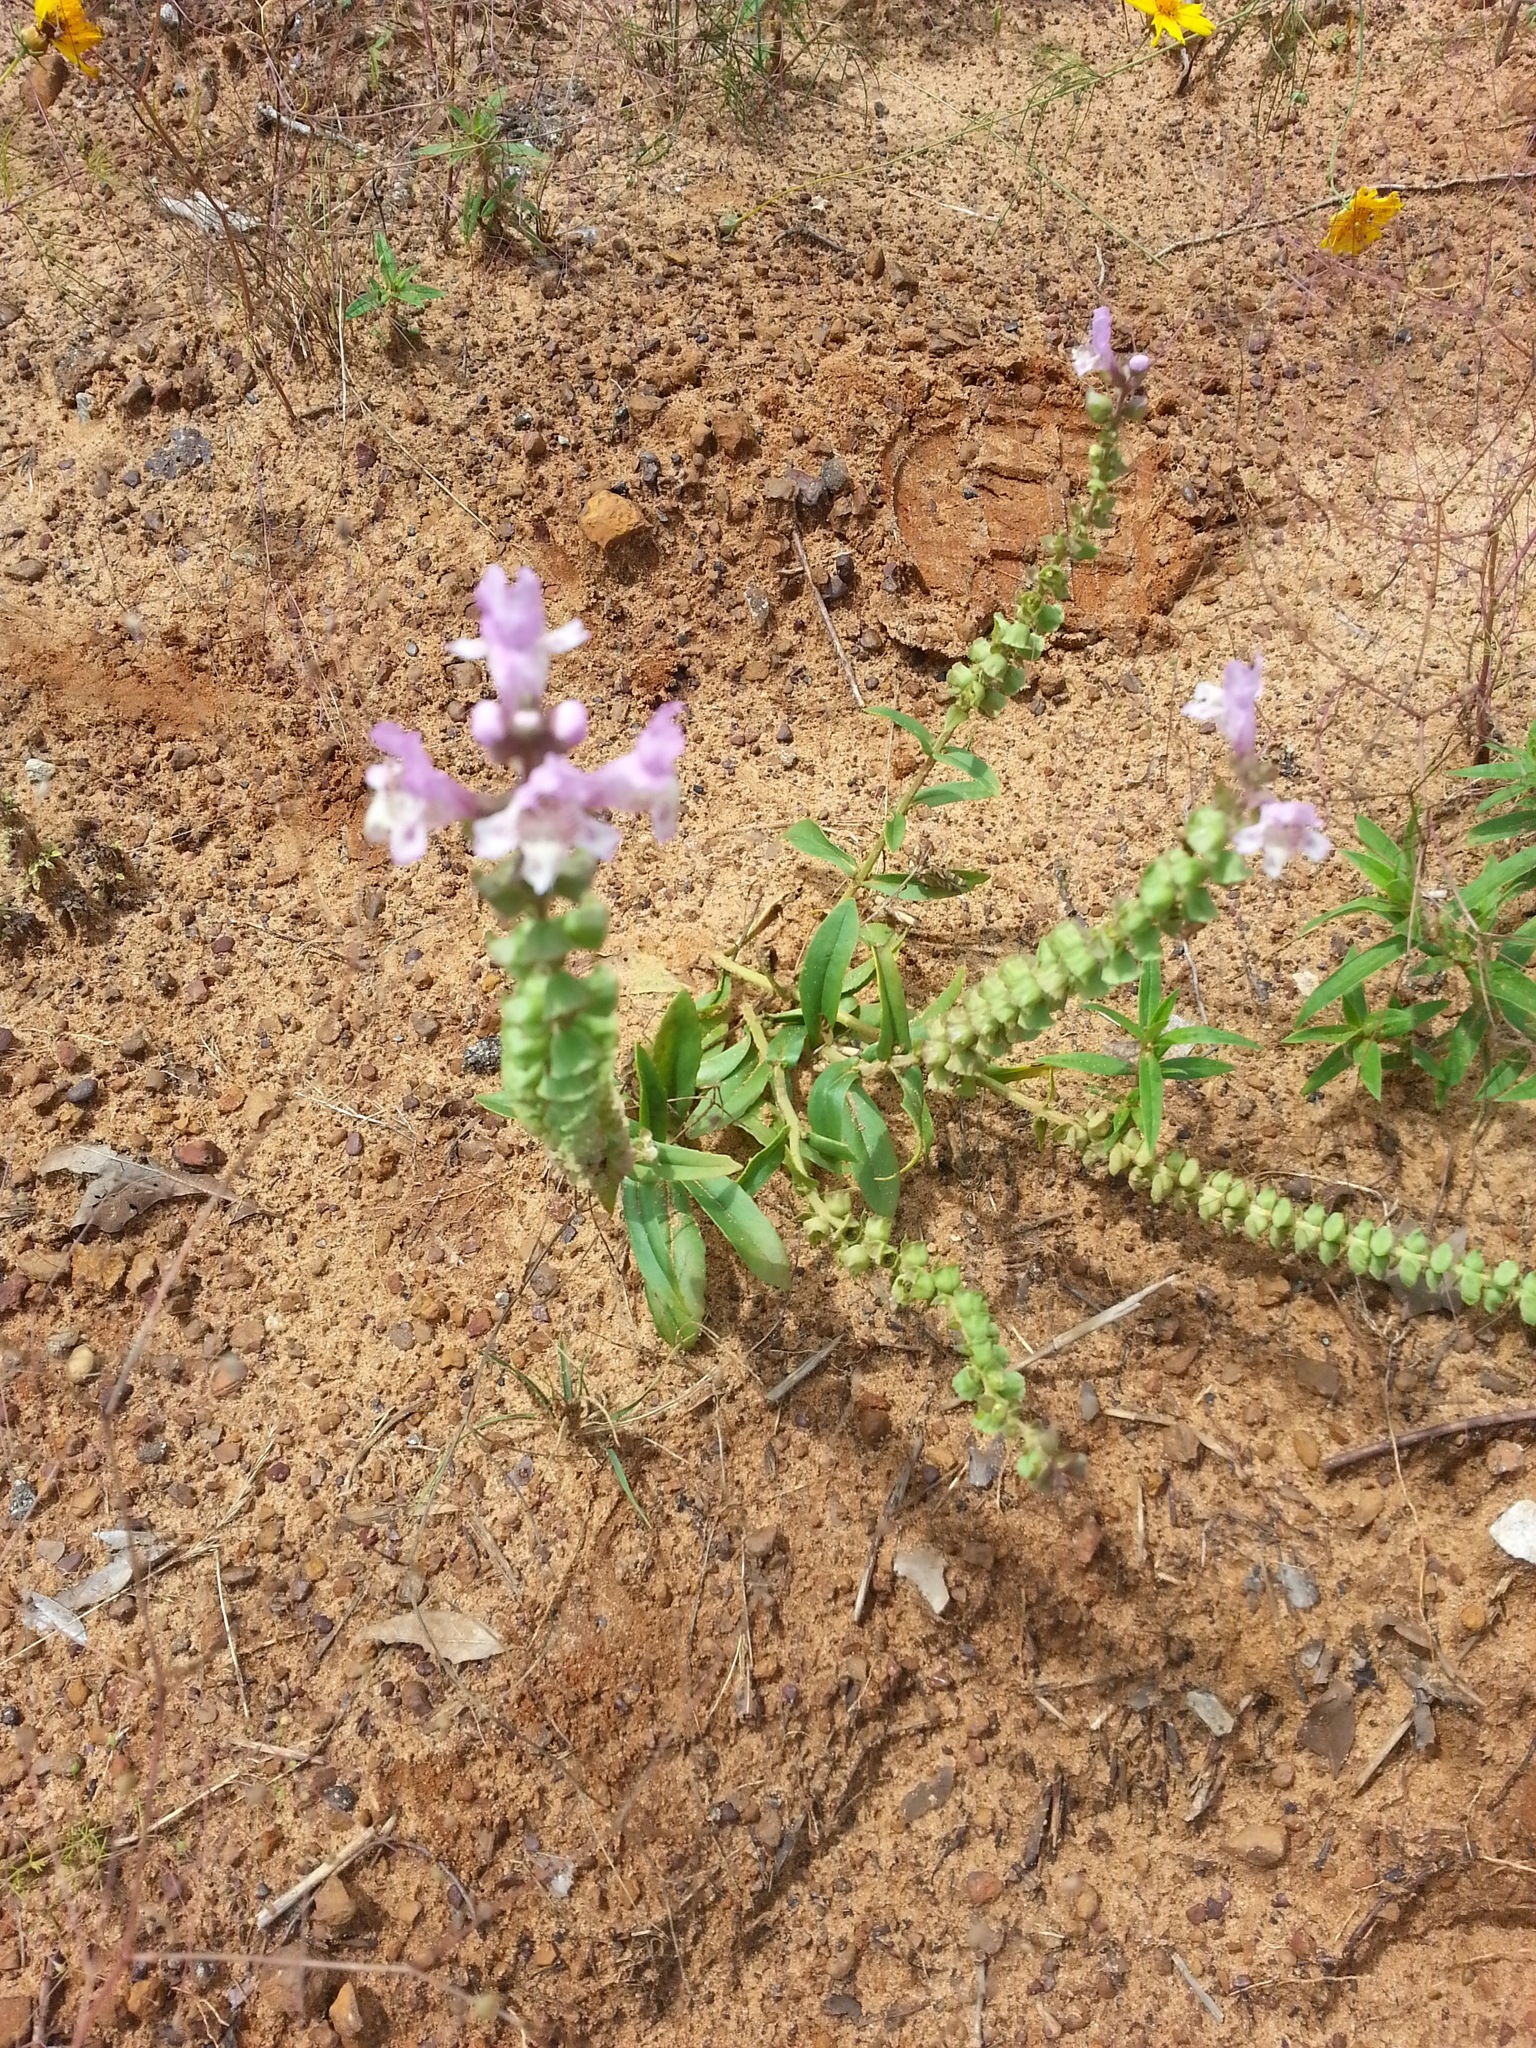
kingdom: Plantae
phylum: Tracheophyta
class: Magnoliopsida
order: Lamiales
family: Lamiaceae
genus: Brazoria
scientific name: Brazoria truncata
